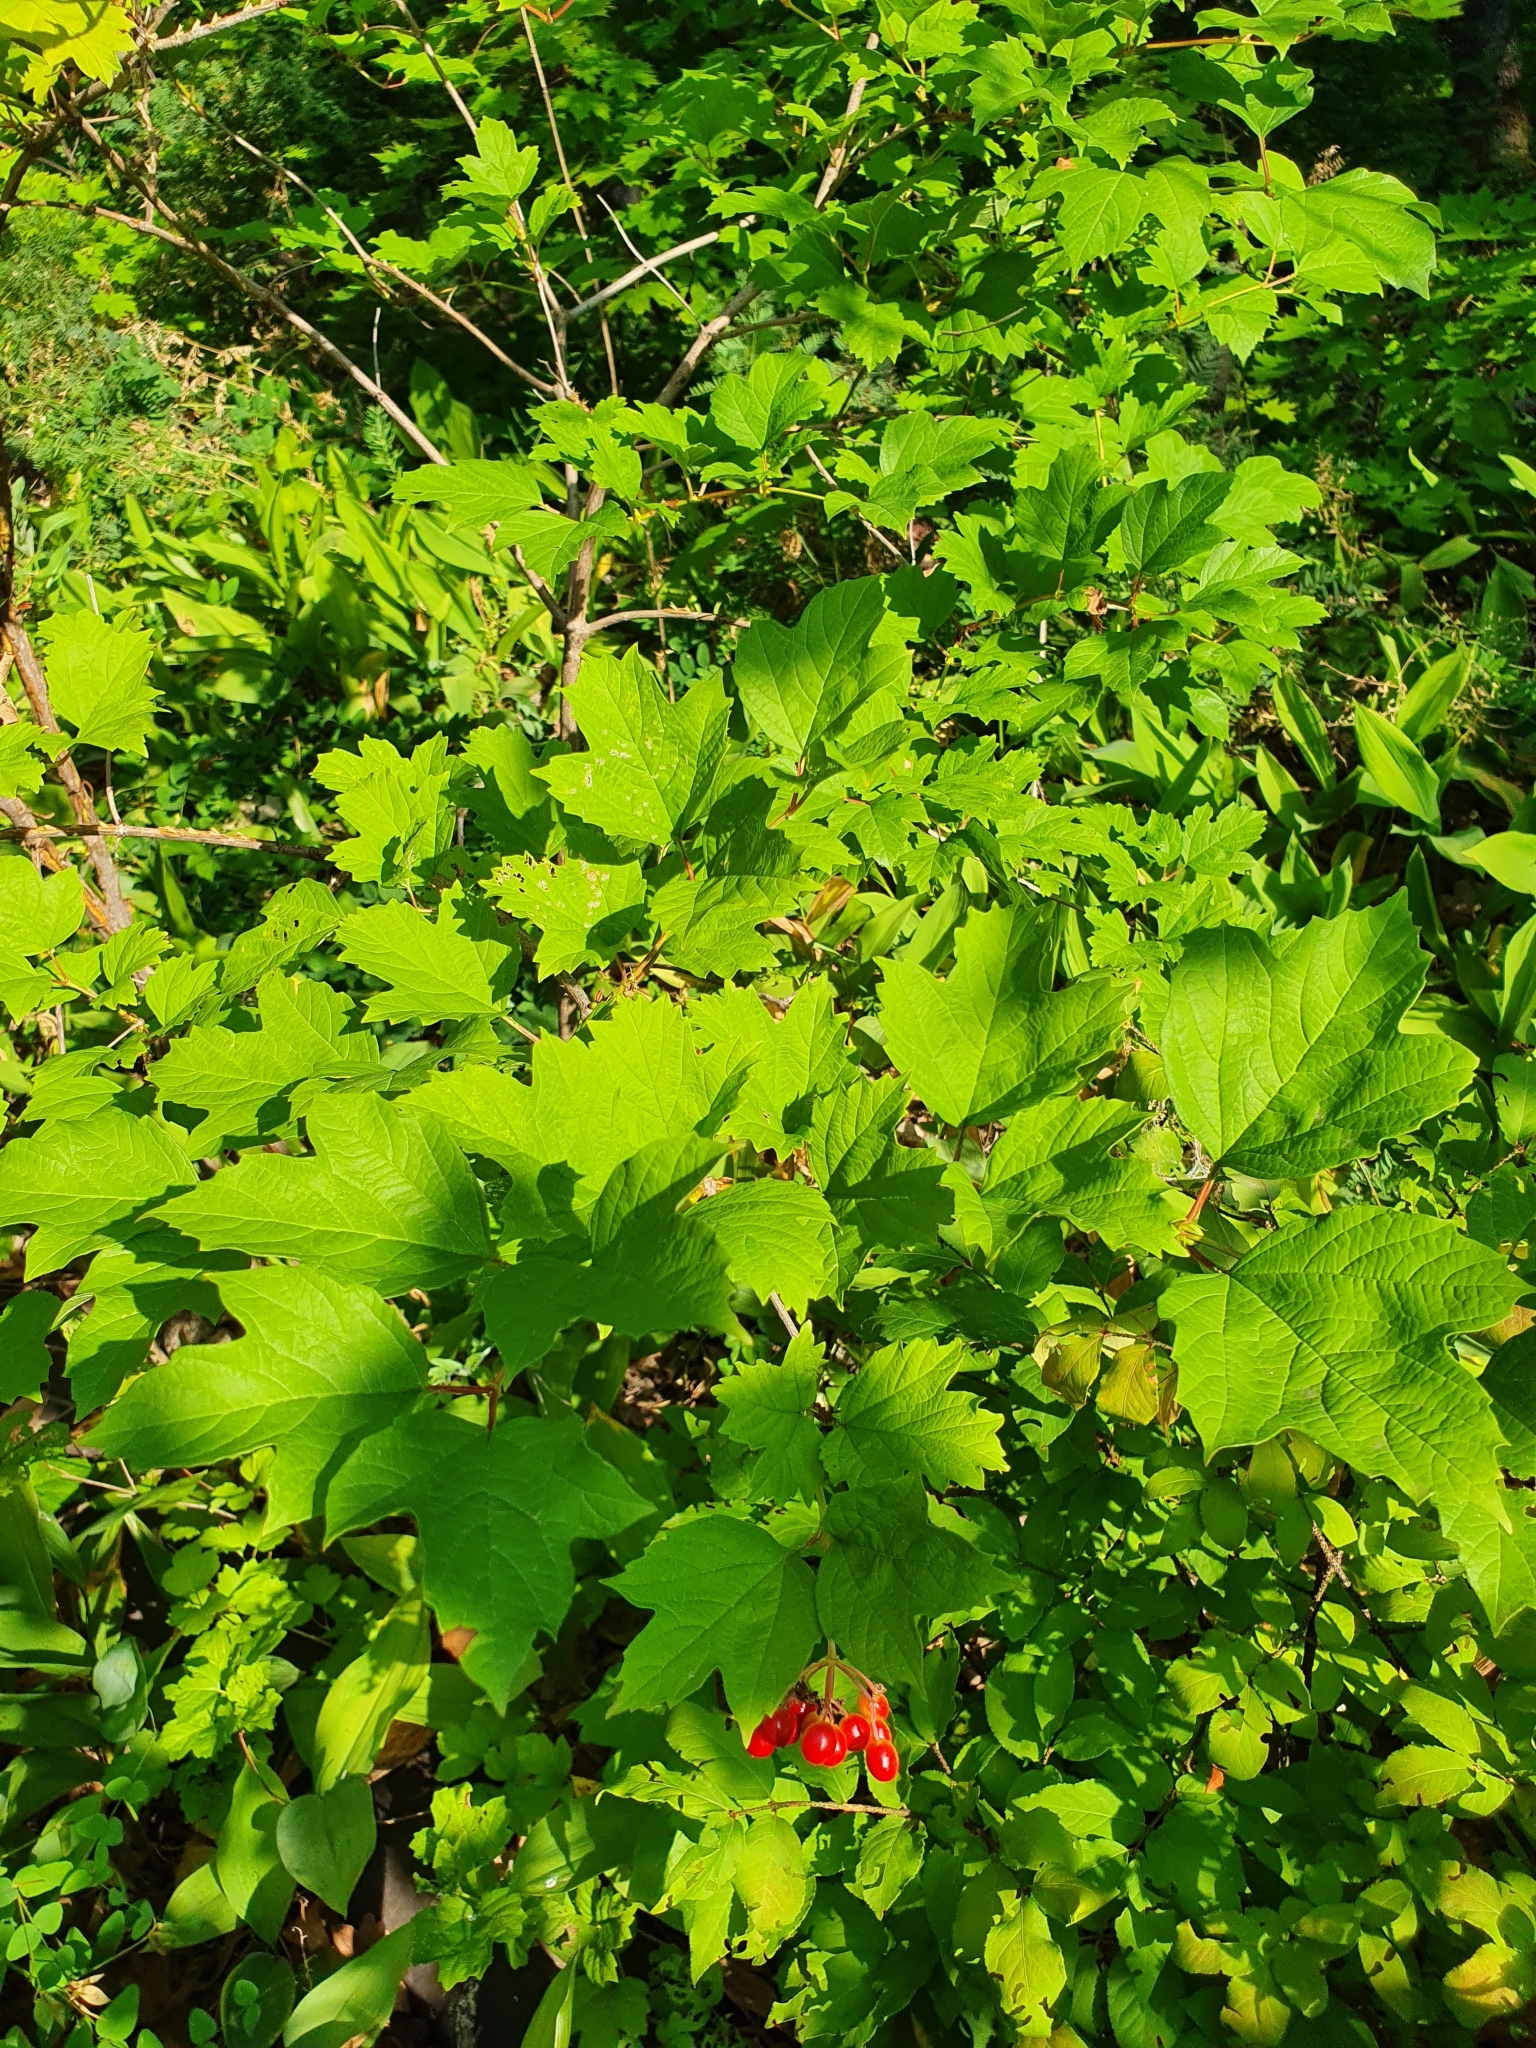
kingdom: Plantae
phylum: Tracheophyta
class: Magnoliopsida
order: Dipsacales
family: Viburnaceae
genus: Viburnum
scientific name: Viburnum opulus
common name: Guelder-rose
